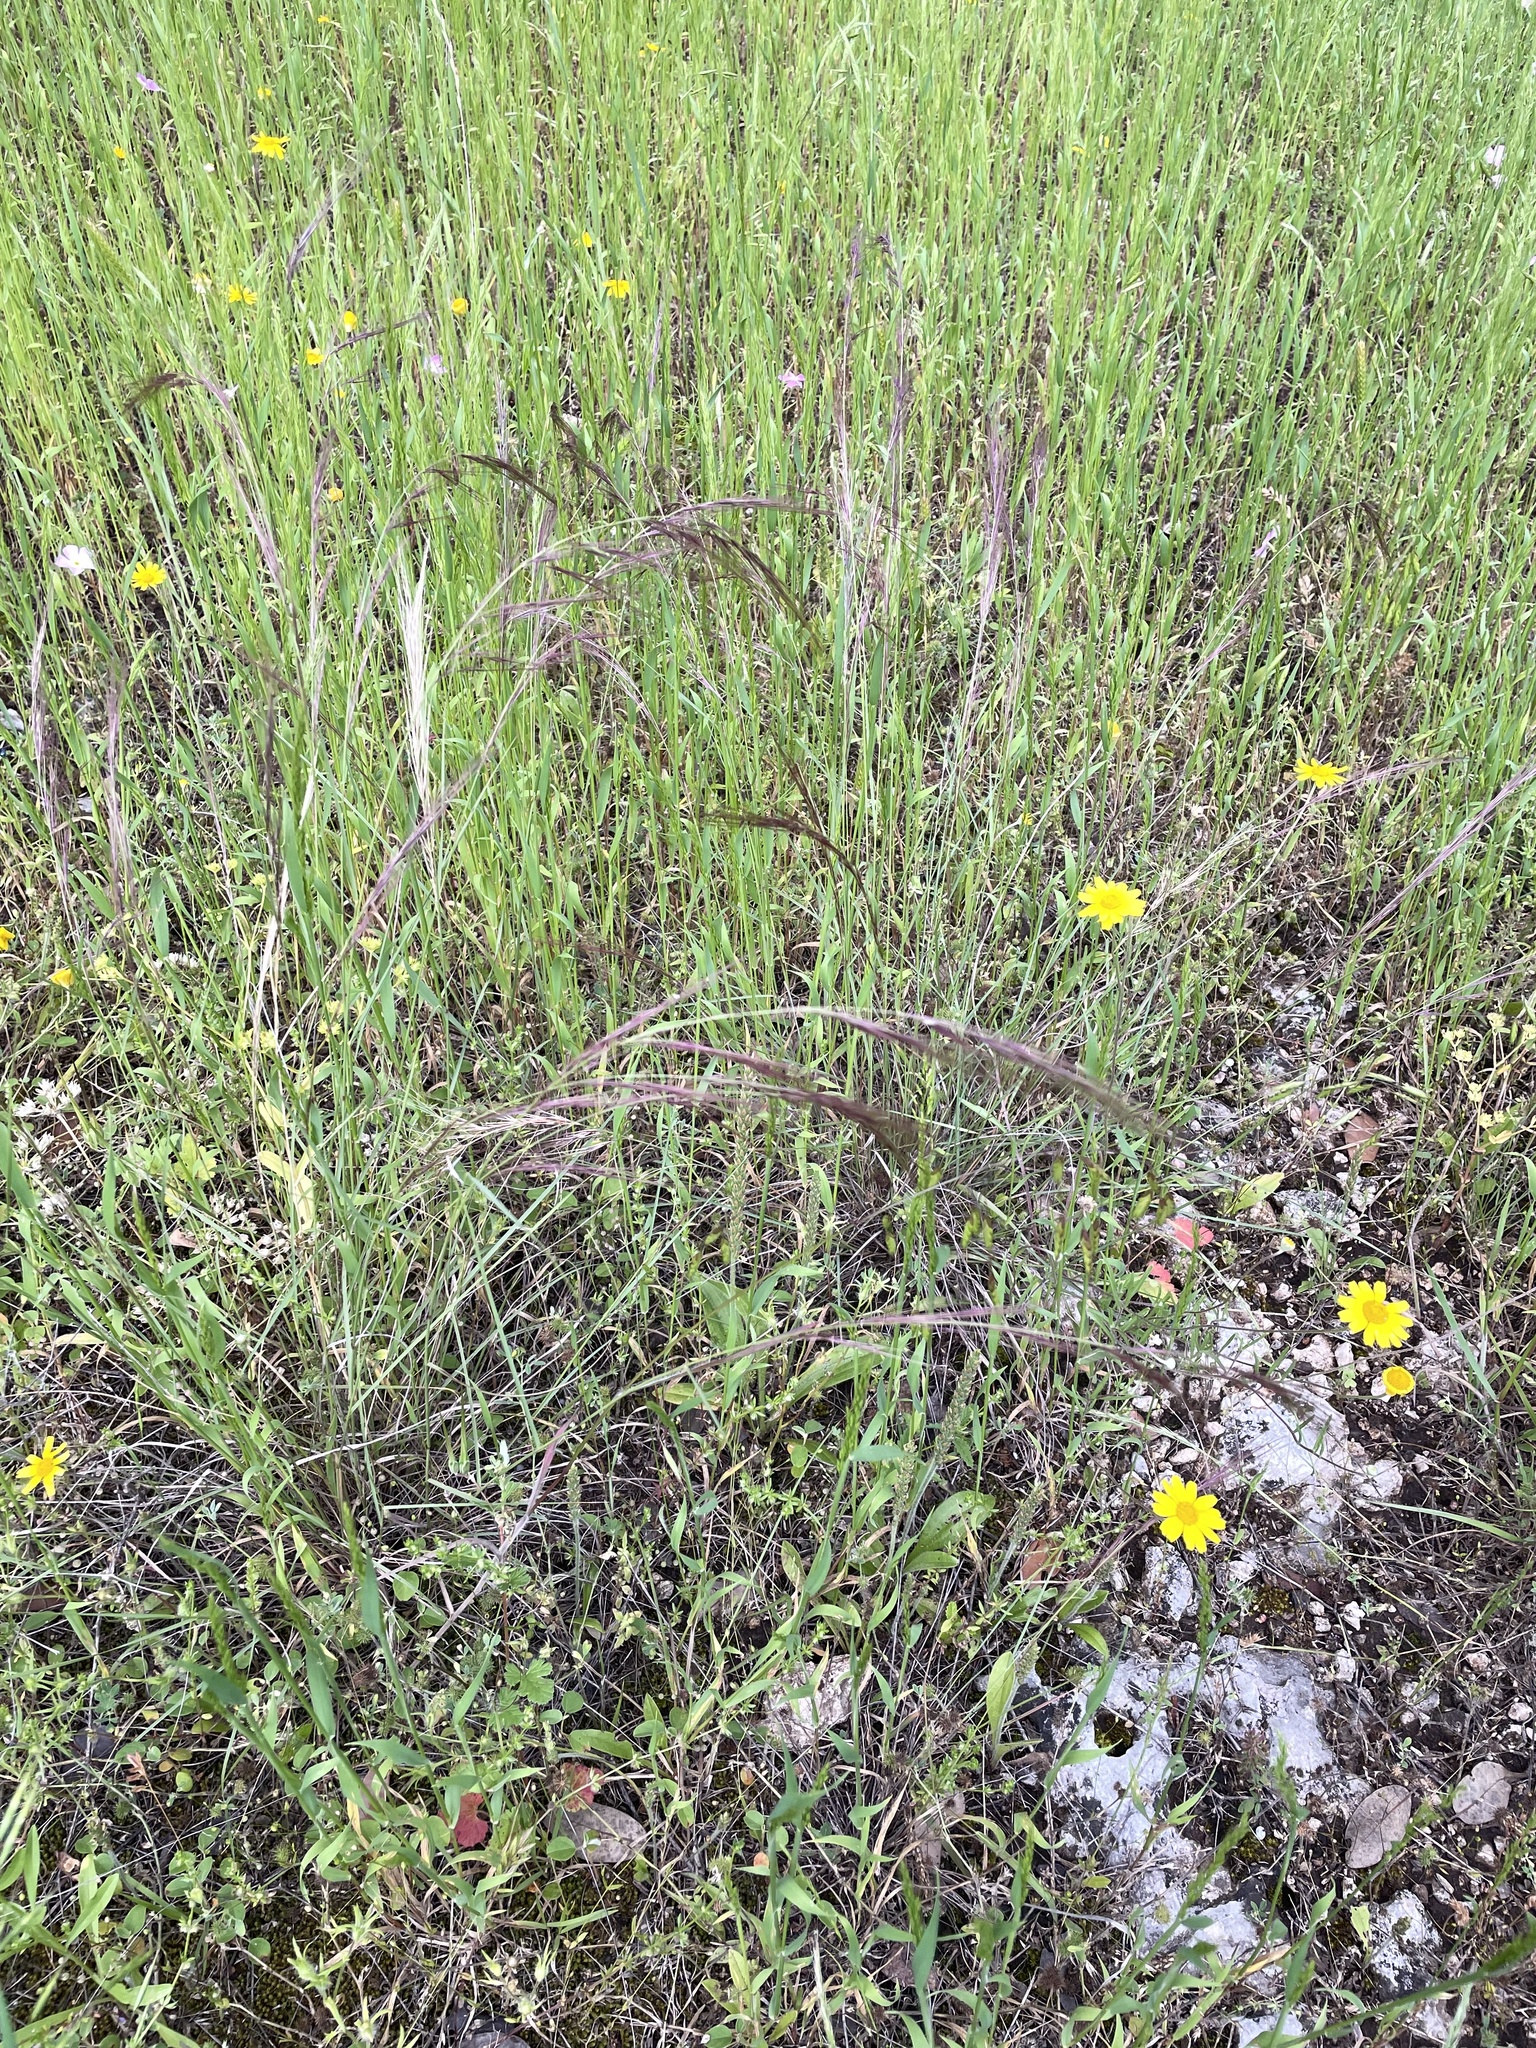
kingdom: Plantae
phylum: Tracheophyta
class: Liliopsida
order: Poales
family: Poaceae
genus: Aristida
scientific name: Aristida purpurea
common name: Purple threeawn
